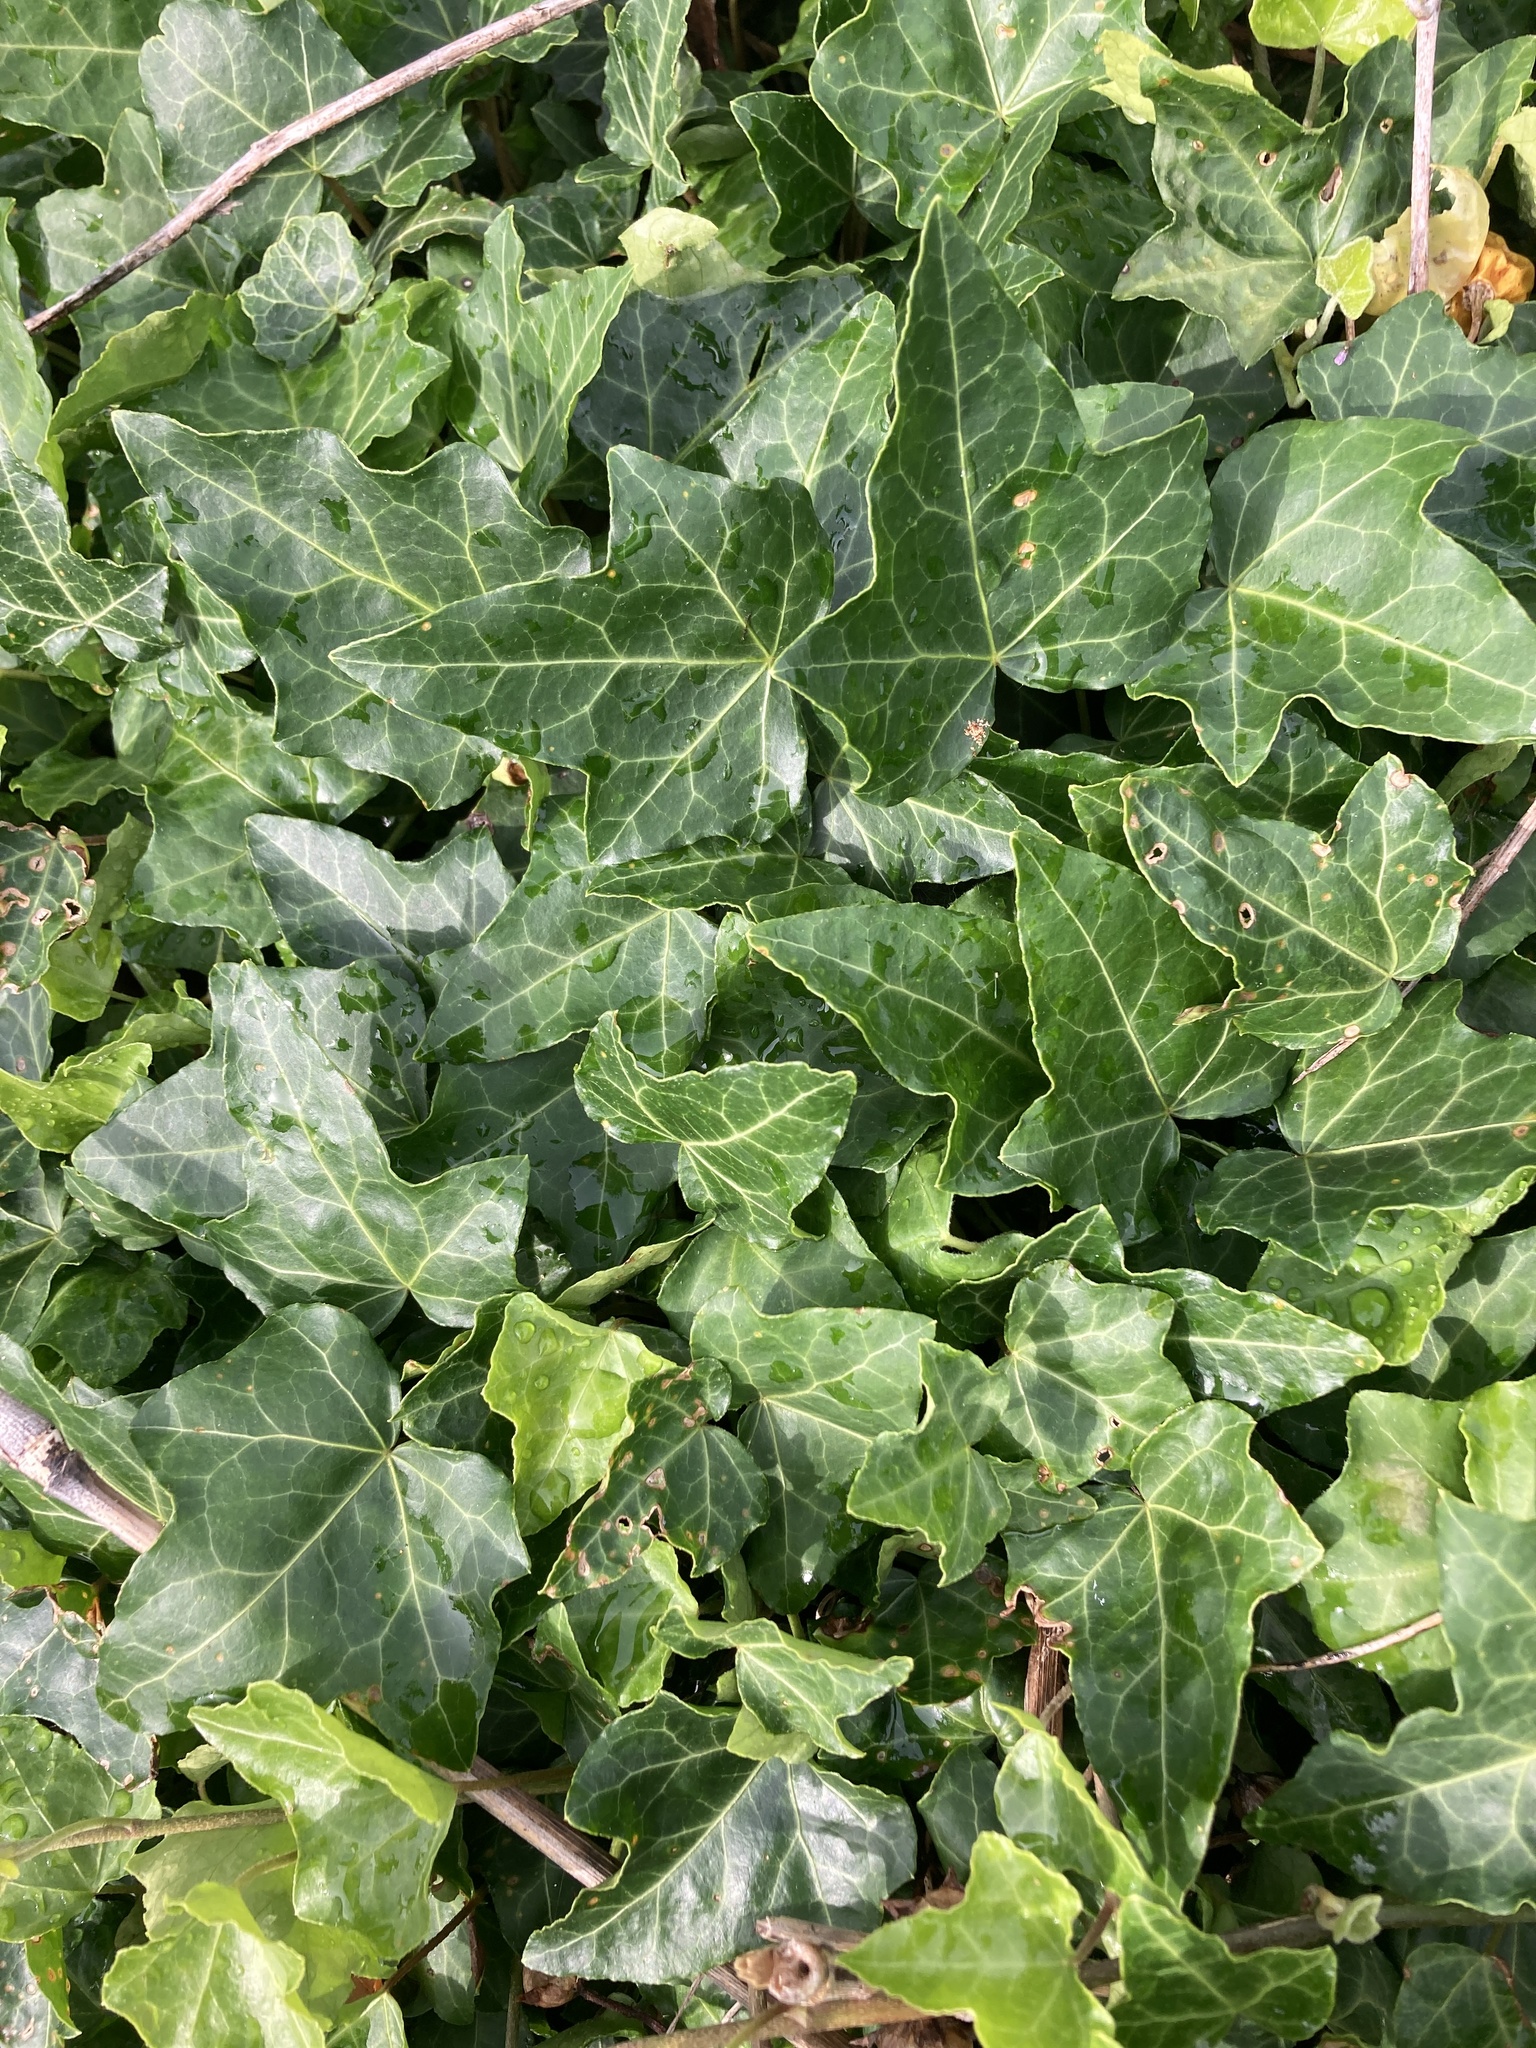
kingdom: Plantae
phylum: Tracheophyta
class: Magnoliopsida
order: Apiales
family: Araliaceae
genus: Hedera
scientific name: Hedera helix
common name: Ivy
